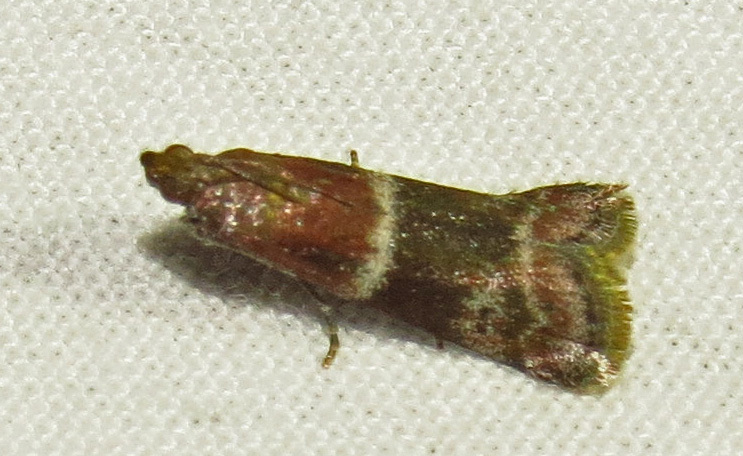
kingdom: Animalia
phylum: Arthropoda
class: Insecta
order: Lepidoptera
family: Pyralidae
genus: Moodna
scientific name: Moodna ostrinella
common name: Darker moodna moth
